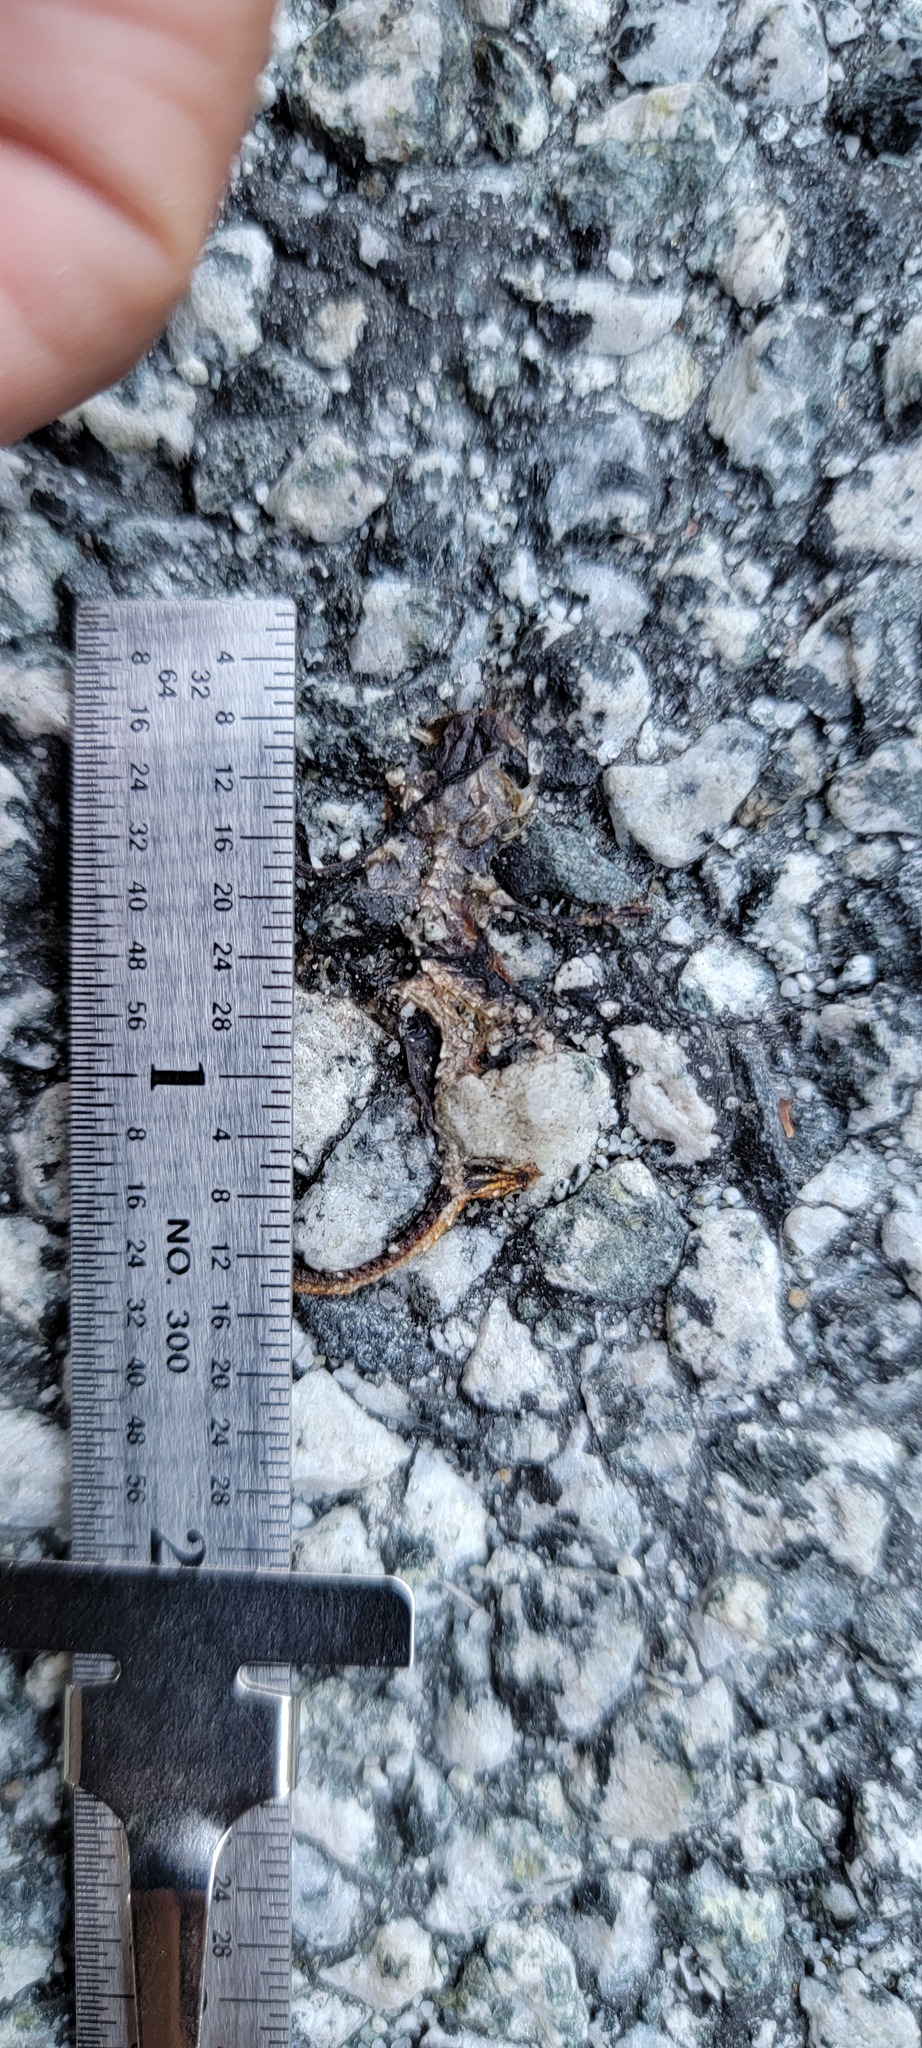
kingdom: Animalia
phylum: Chordata
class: Amphibia
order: Caudata
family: Salamandridae
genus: Taricha
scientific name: Taricha
